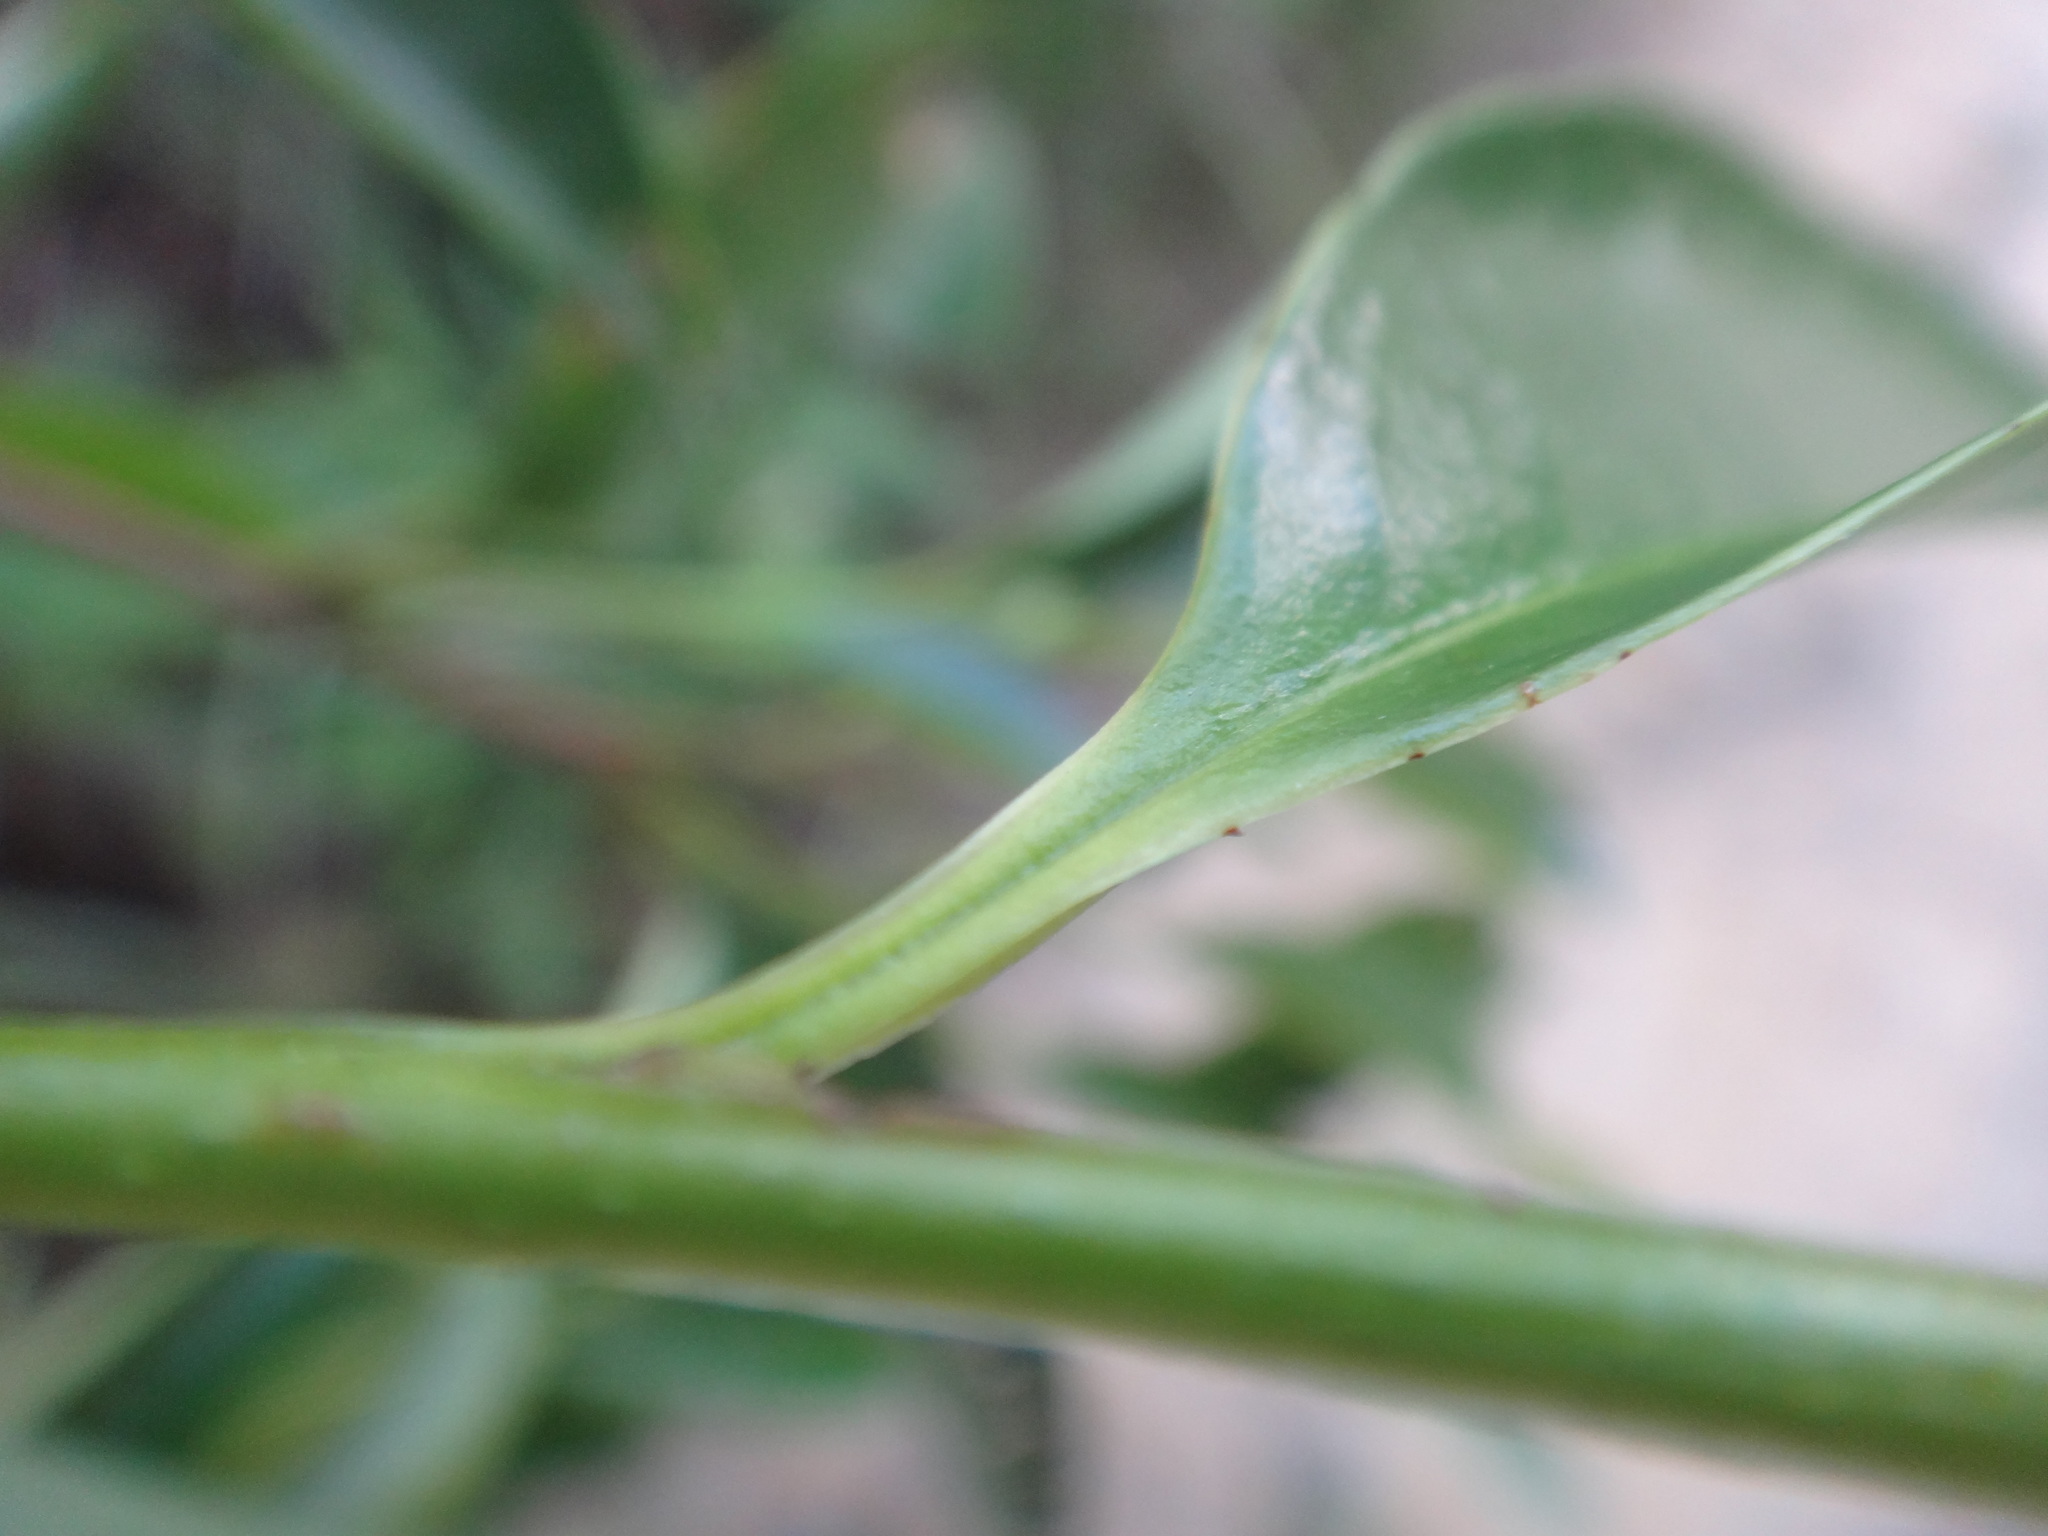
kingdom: Plantae
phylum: Tracheophyta
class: Magnoliopsida
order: Ericales
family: Pentaphylacaceae
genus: Eurya
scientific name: Eurya nitida
